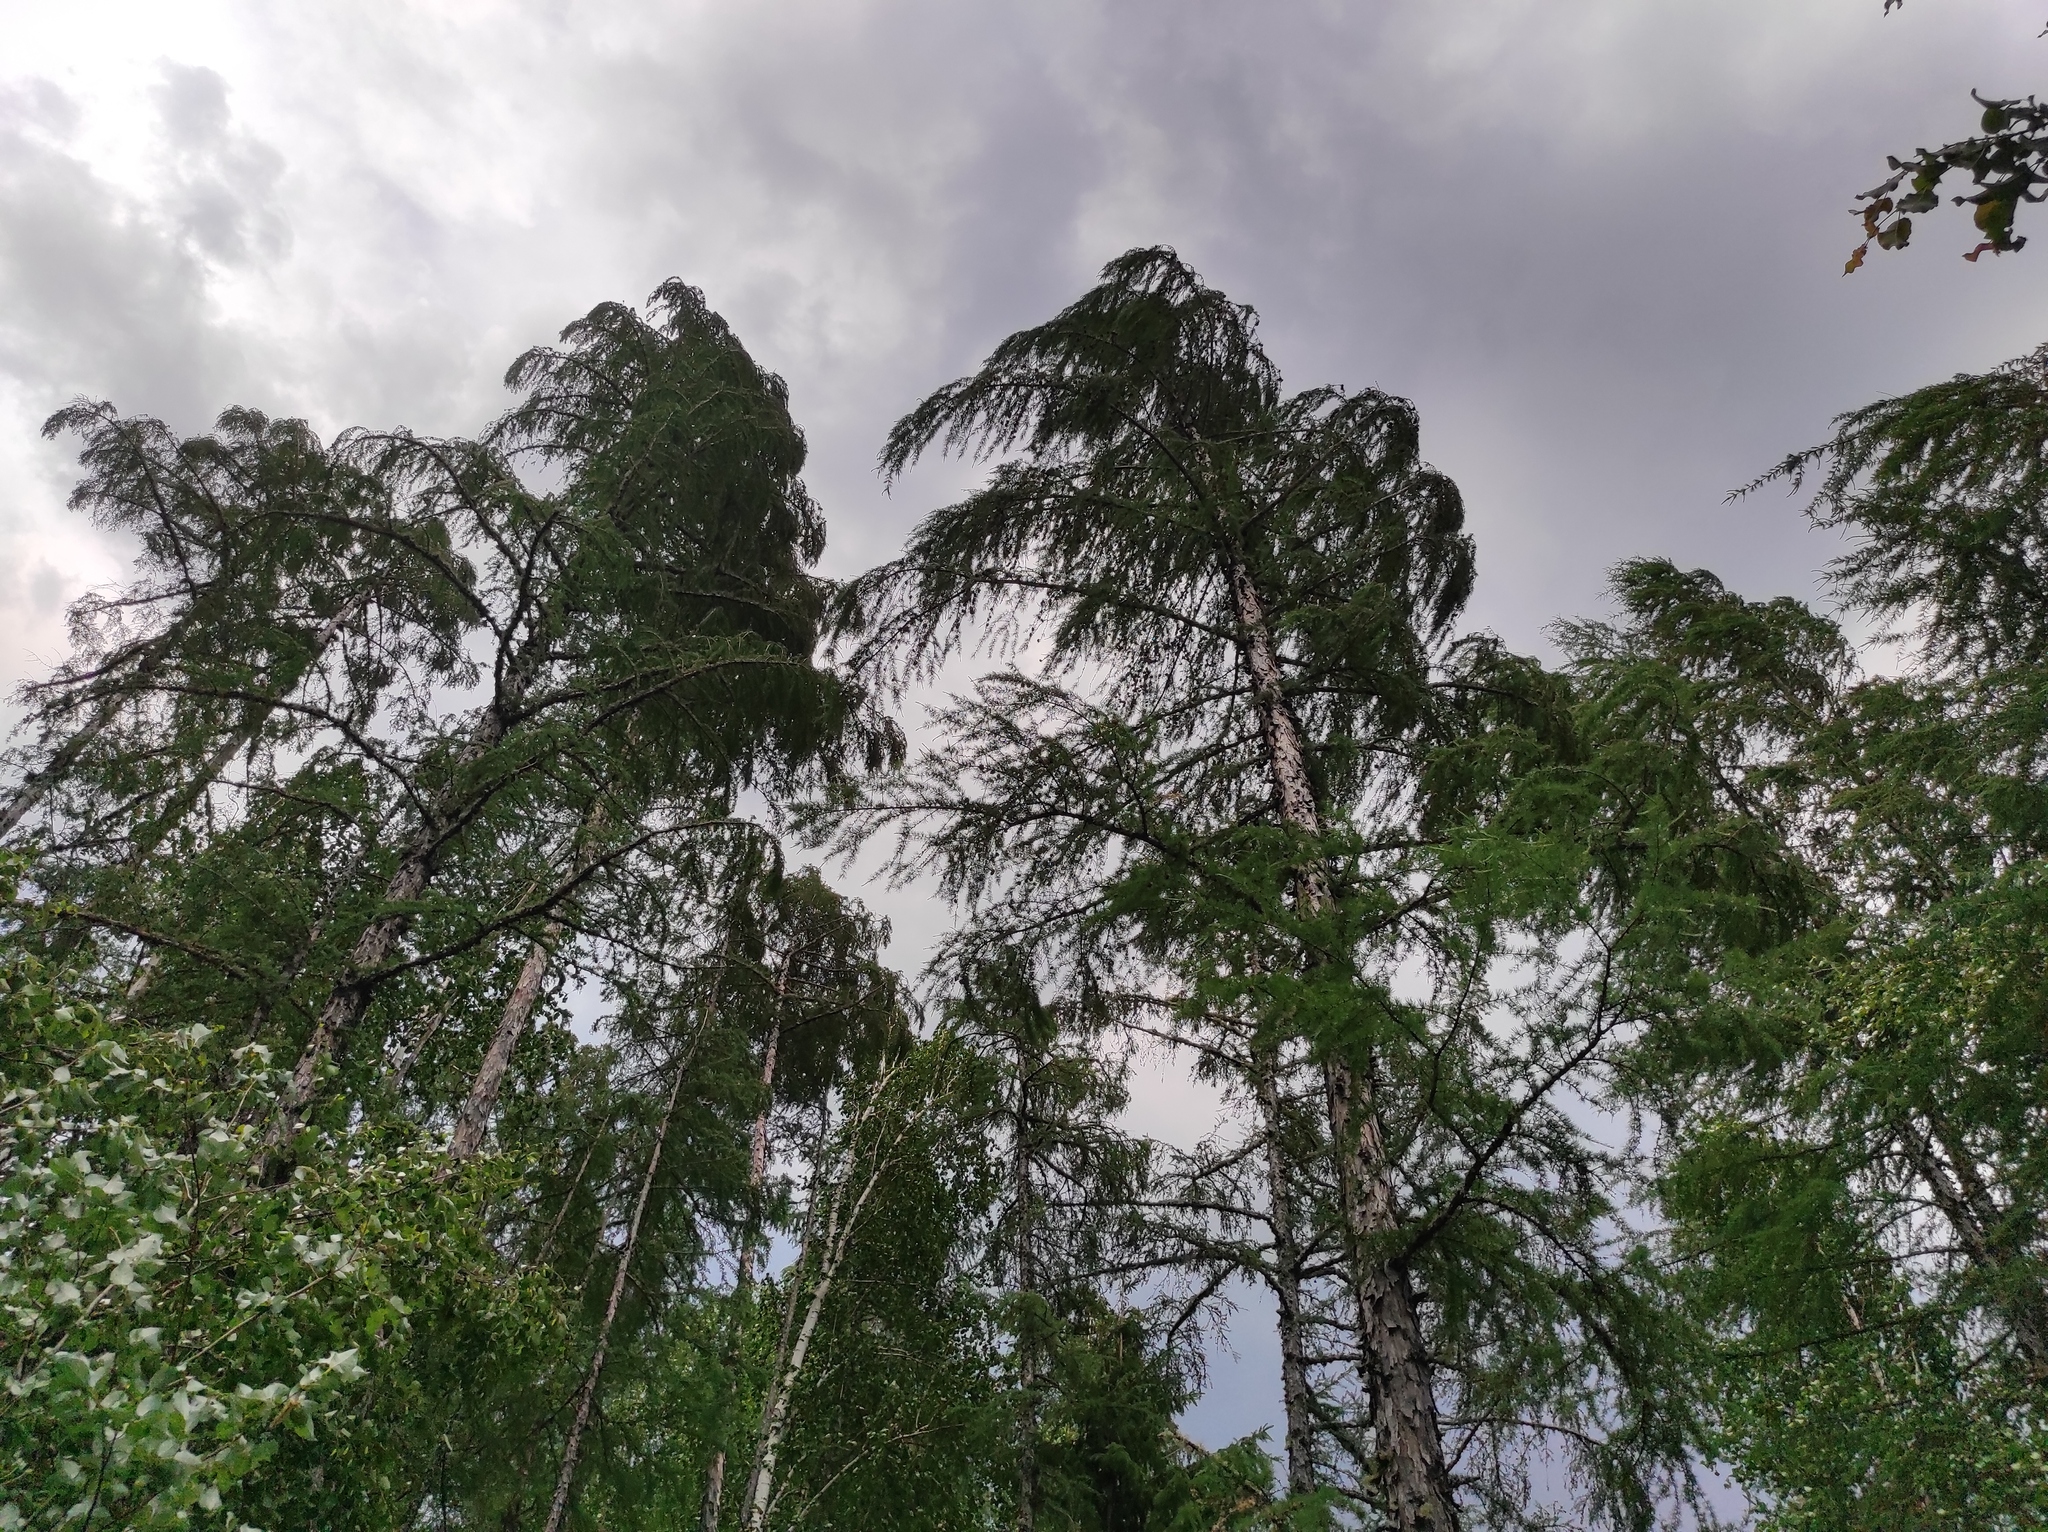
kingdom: Plantae
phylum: Tracheophyta
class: Pinopsida
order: Pinales
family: Pinaceae
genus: Larix
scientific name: Larix gmelinii
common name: Dahurian larch
